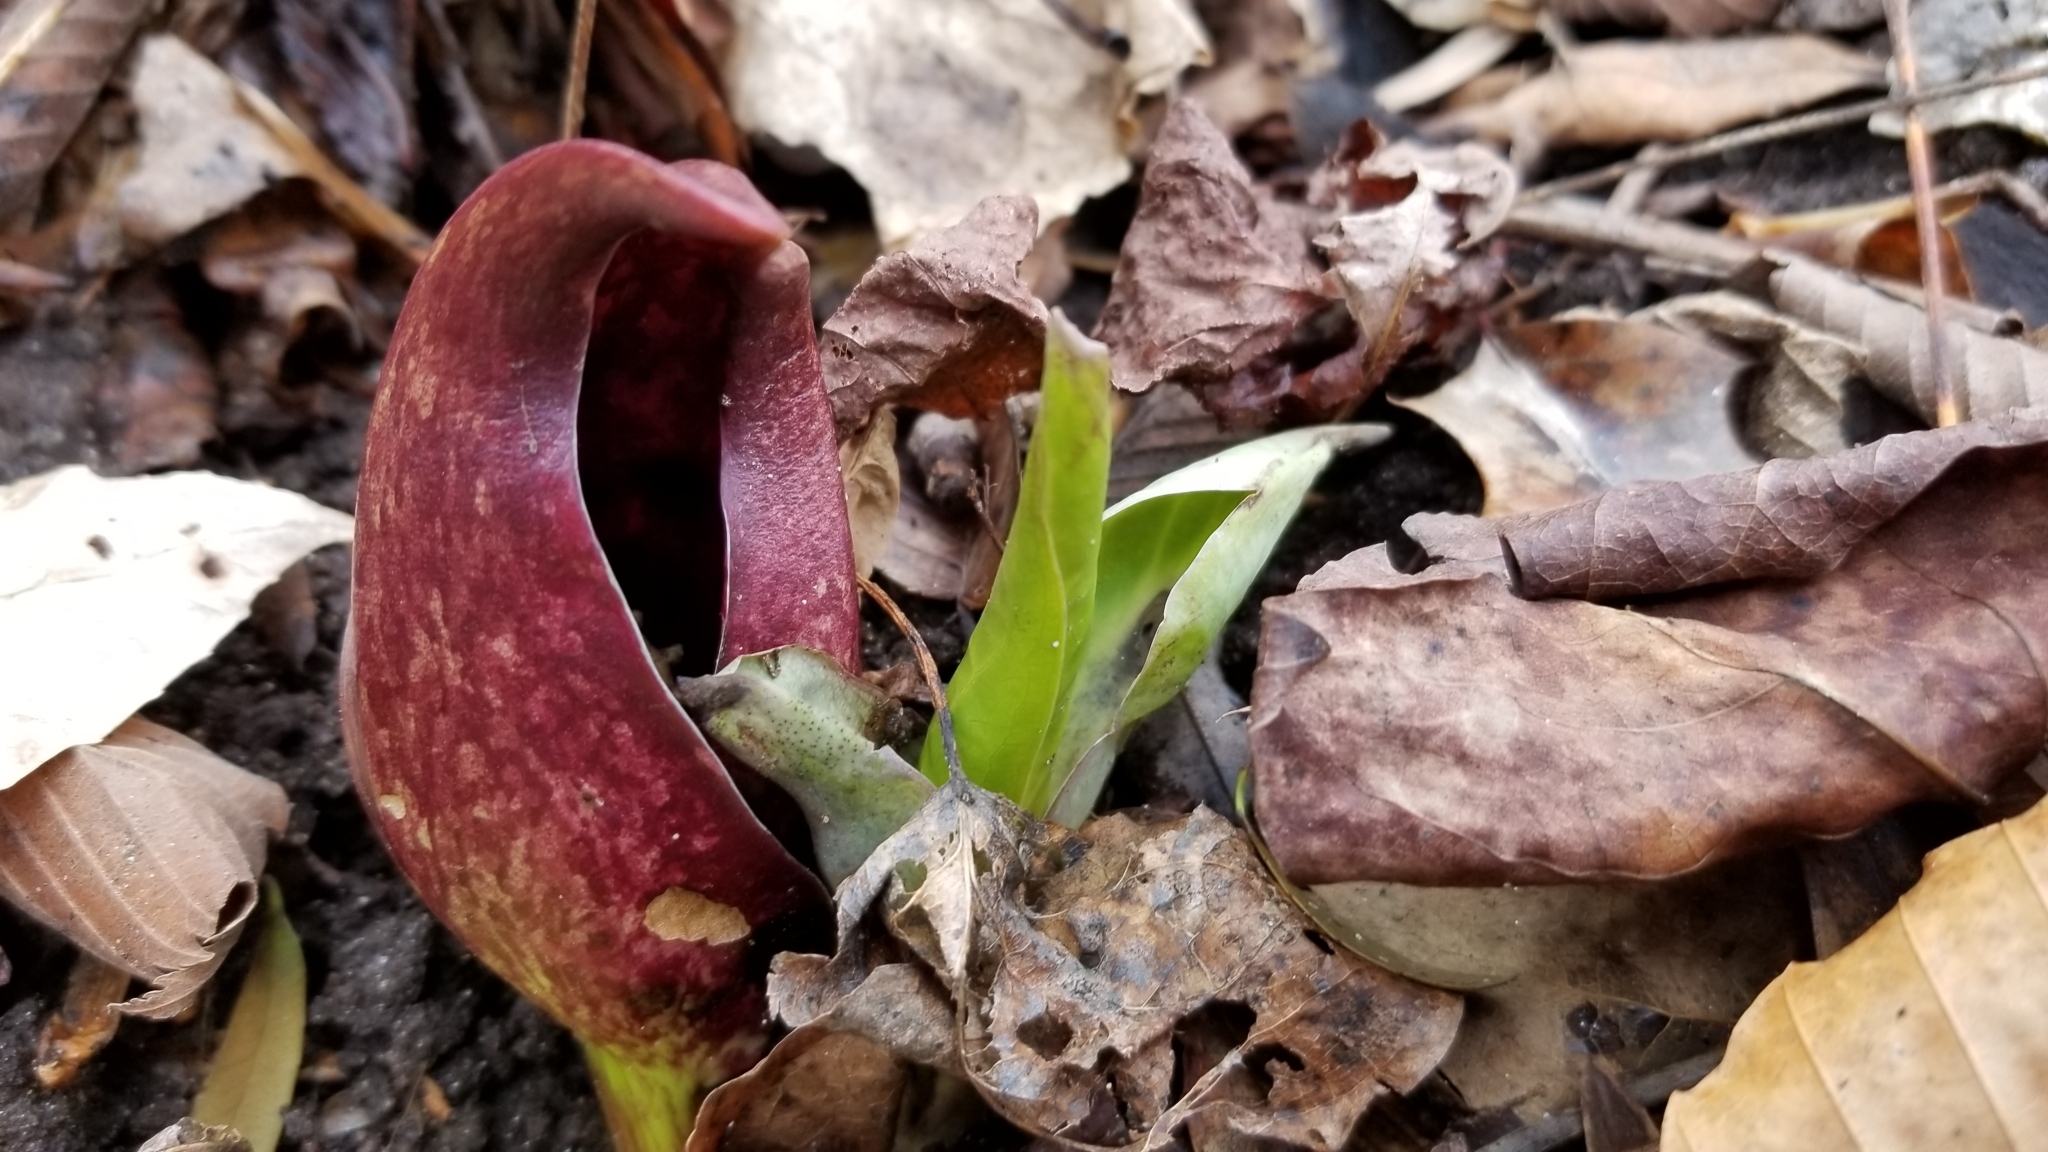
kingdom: Plantae
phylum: Tracheophyta
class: Liliopsida
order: Alismatales
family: Araceae
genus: Symplocarpus
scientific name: Symplocarpus foetidus
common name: Eastern skunk cabbage
